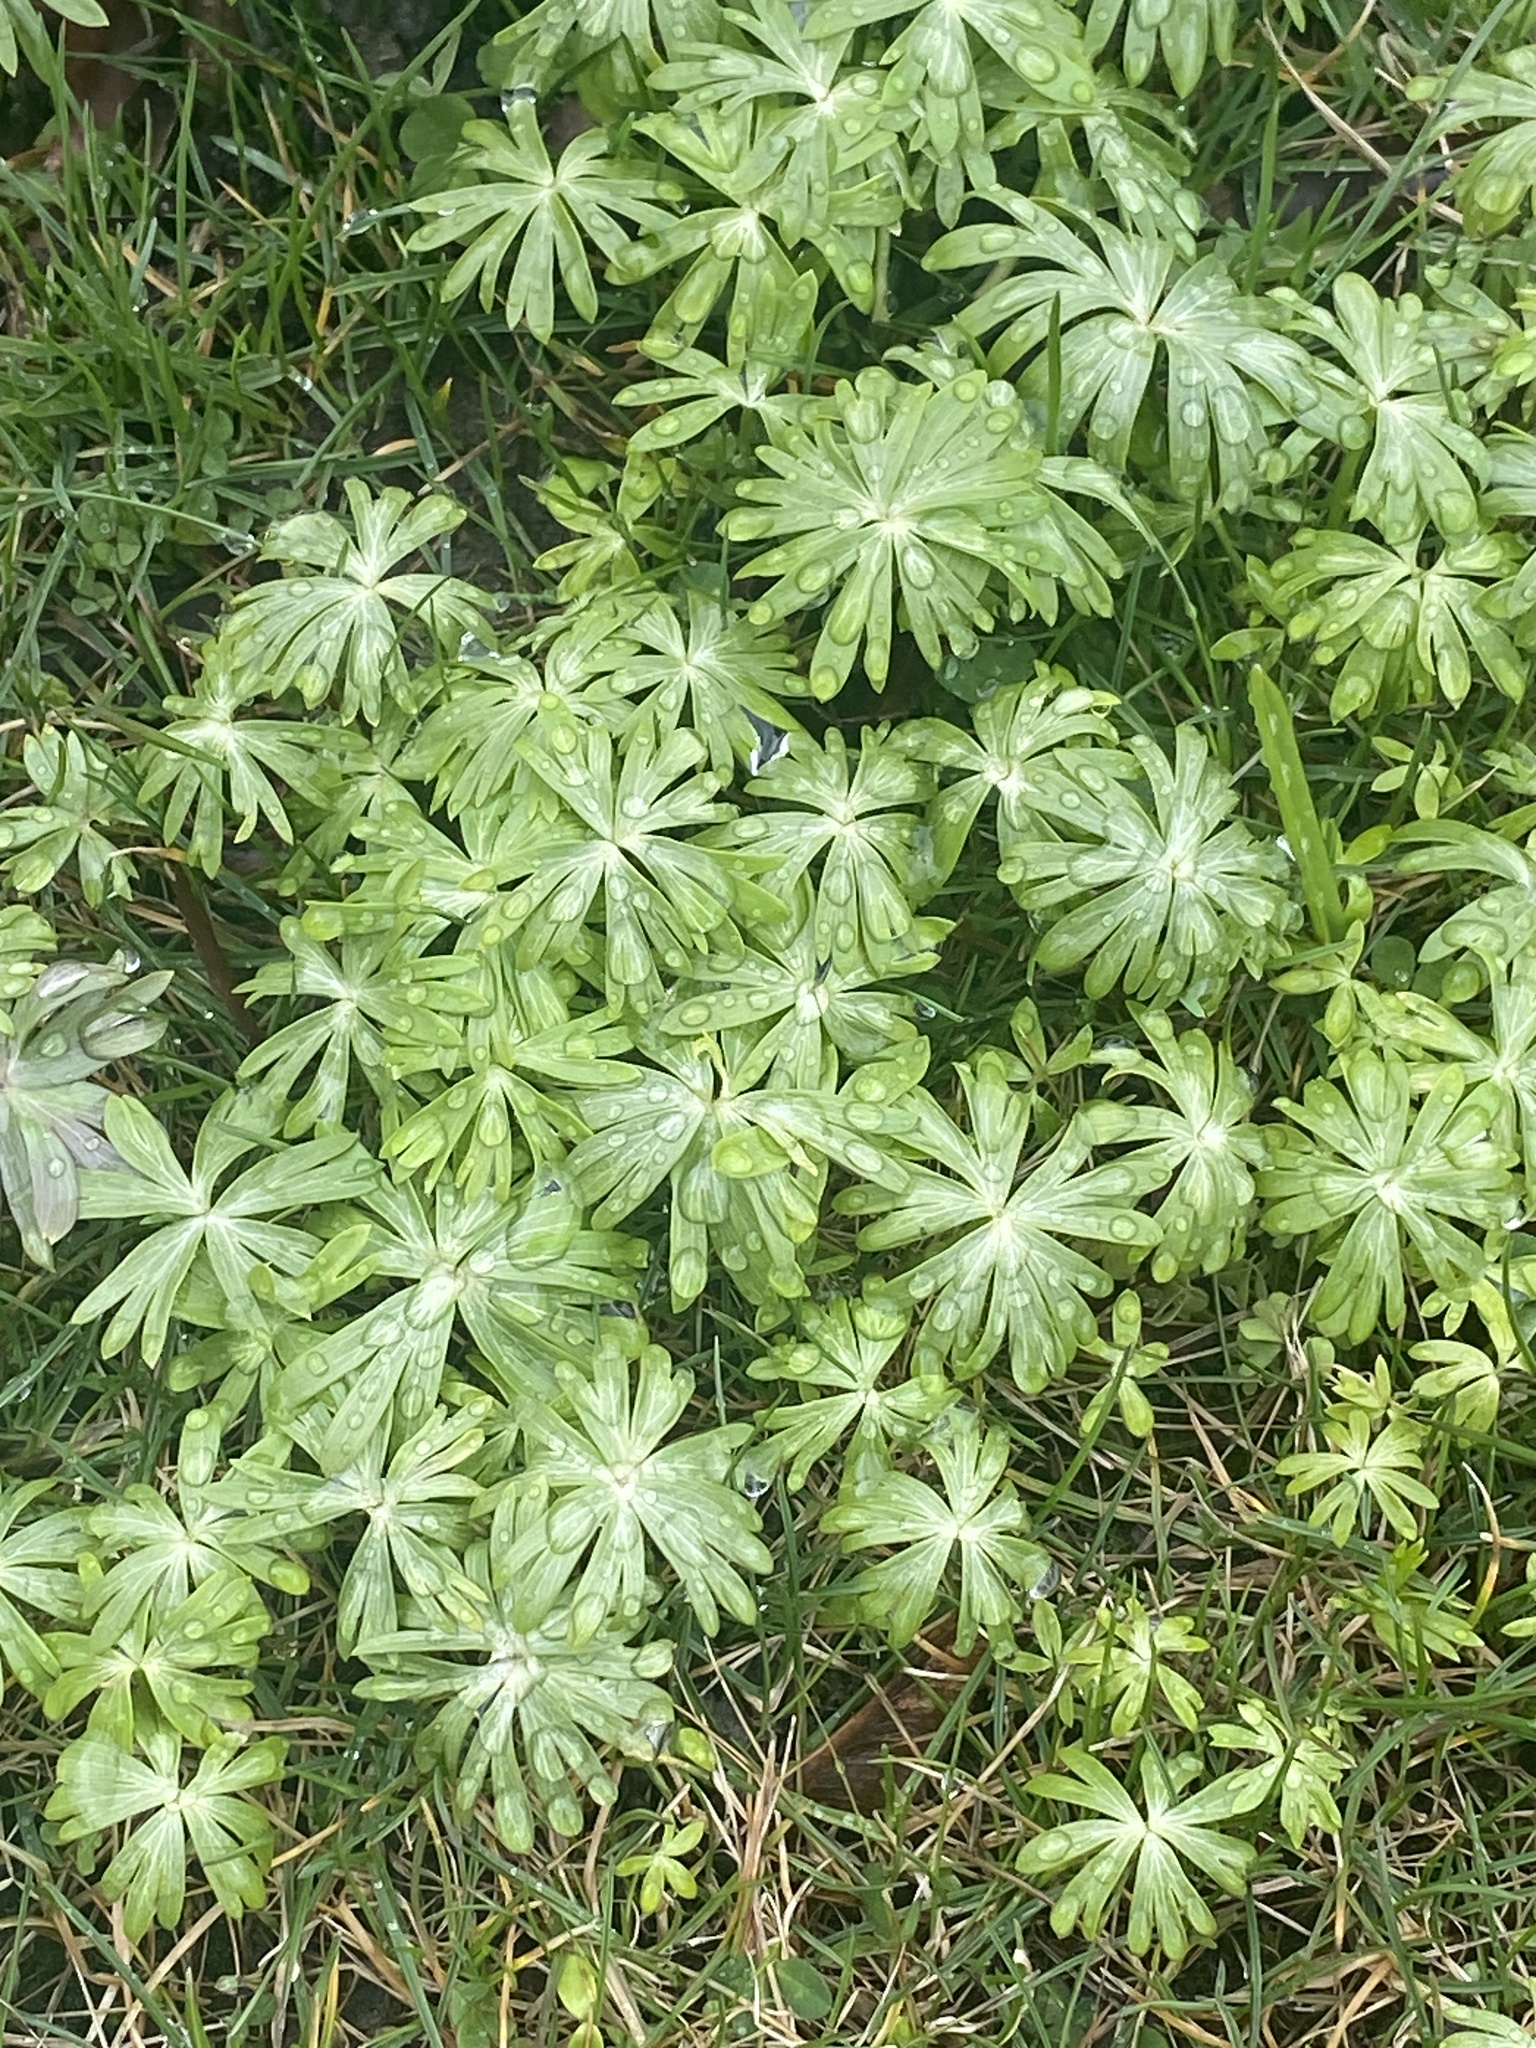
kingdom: Plantae
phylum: Tracheophyta
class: Magnoliopsida
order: Ranunculales
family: Ranunculaceae
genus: Eranthis
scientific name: Eranthis hyemalis
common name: Winter aconite
